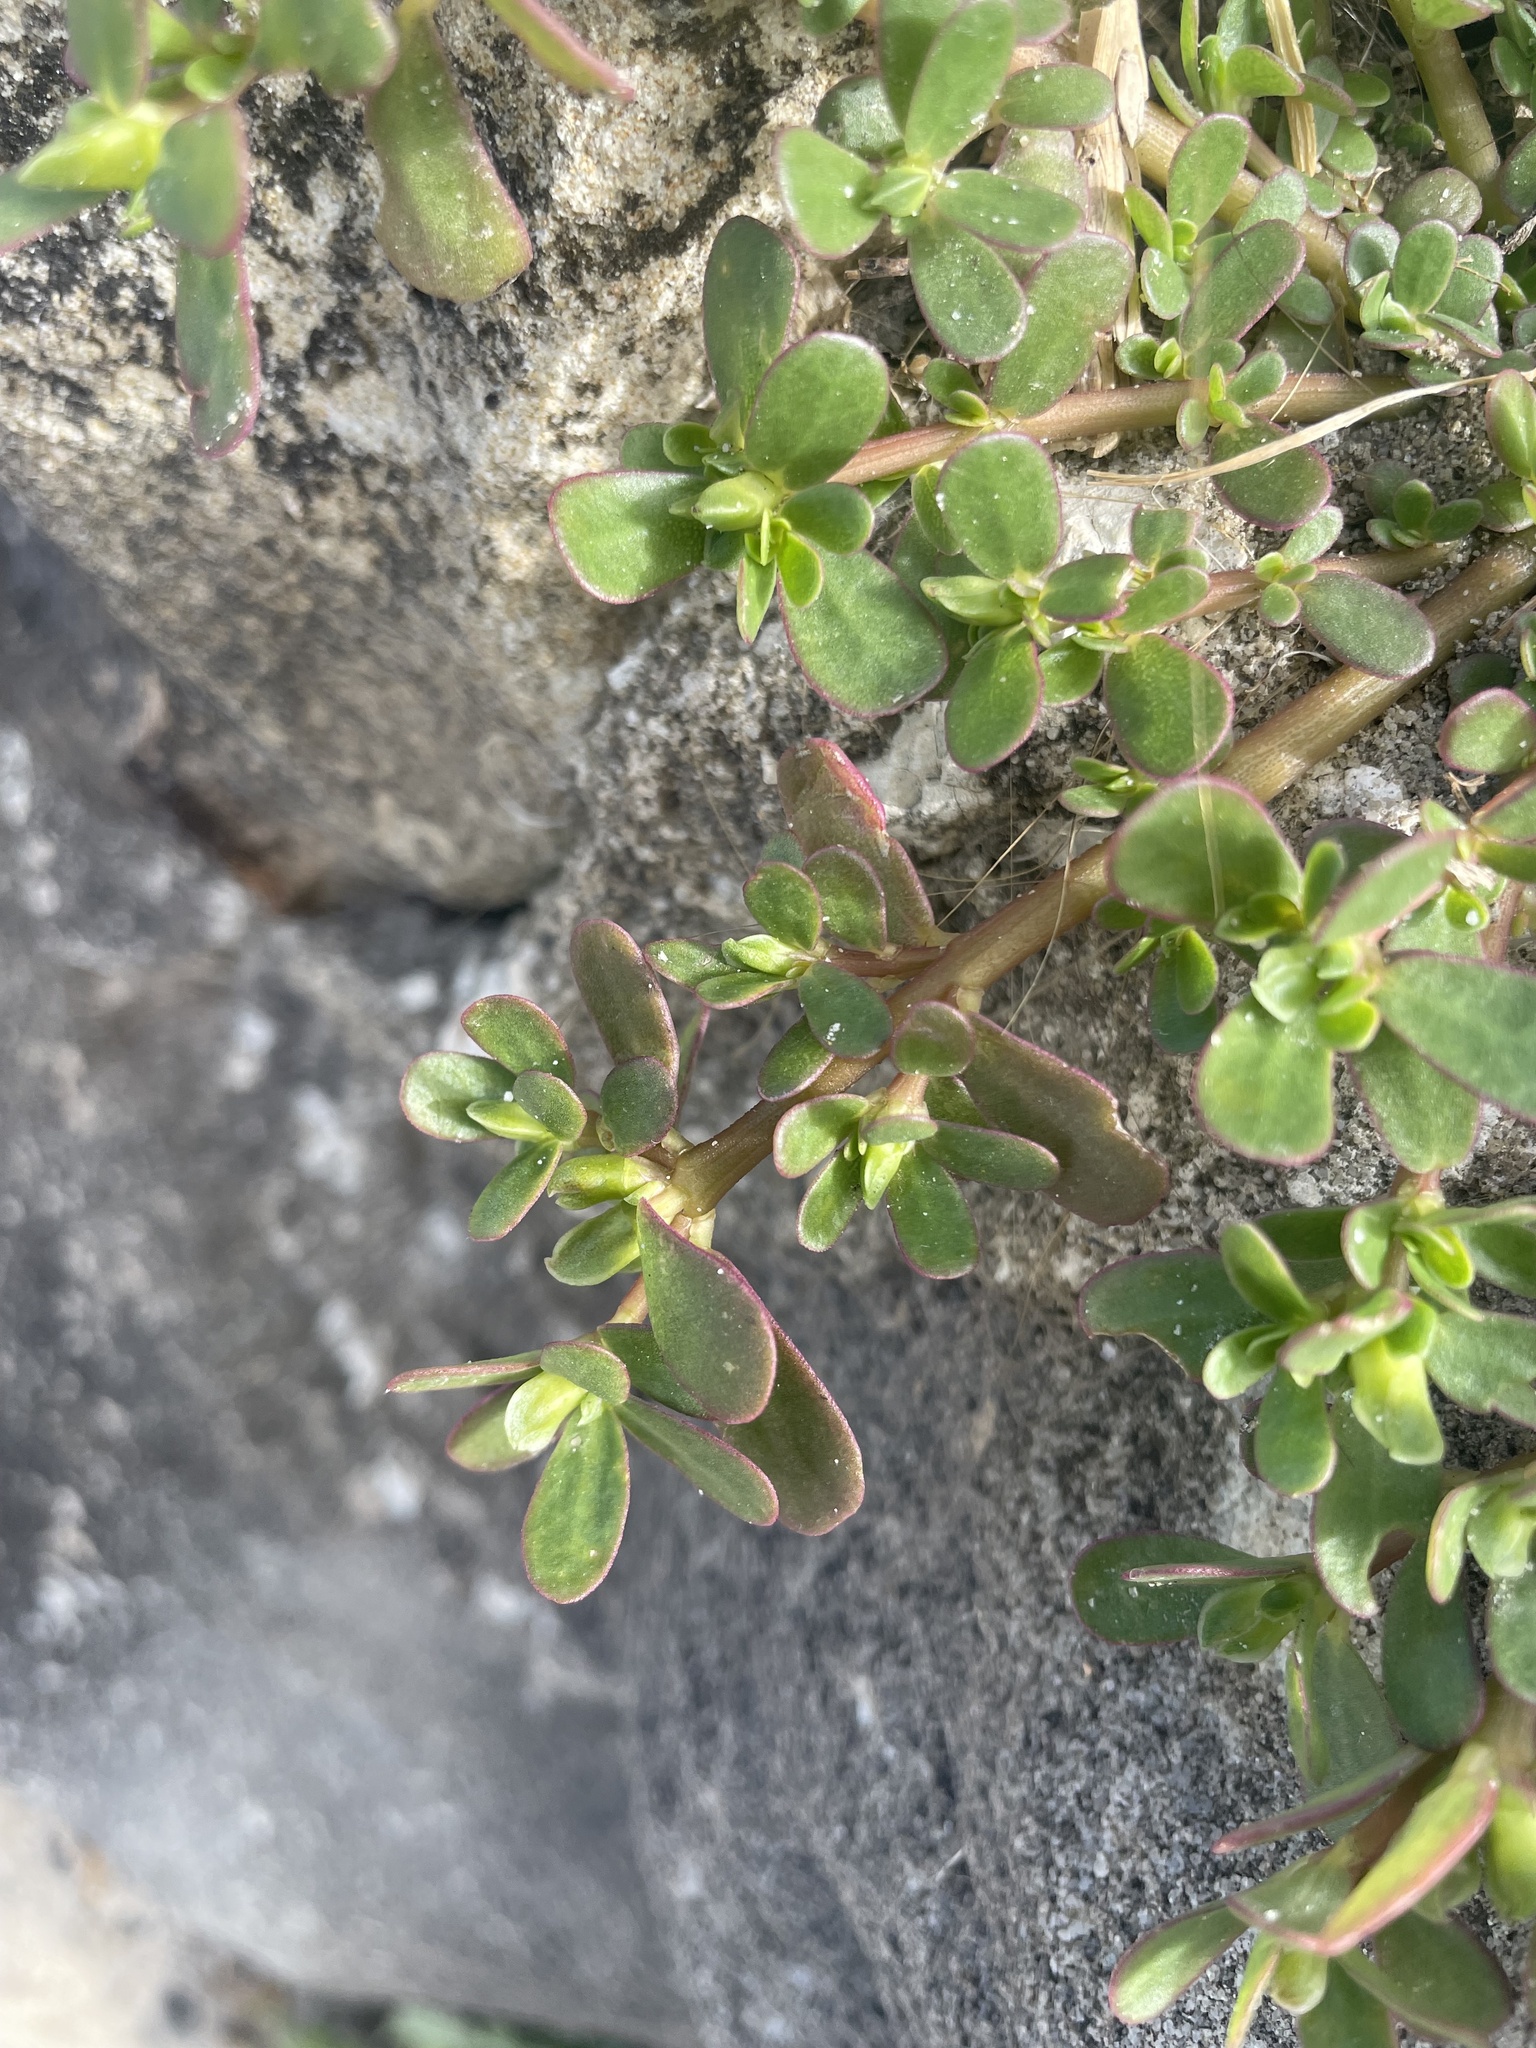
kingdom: Plantae
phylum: Tracheophyta
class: Magnoliopsida
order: Caryophyllales
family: Portulacaceae
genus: Portulaca
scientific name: Portulaca oleracea
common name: Common purslane
